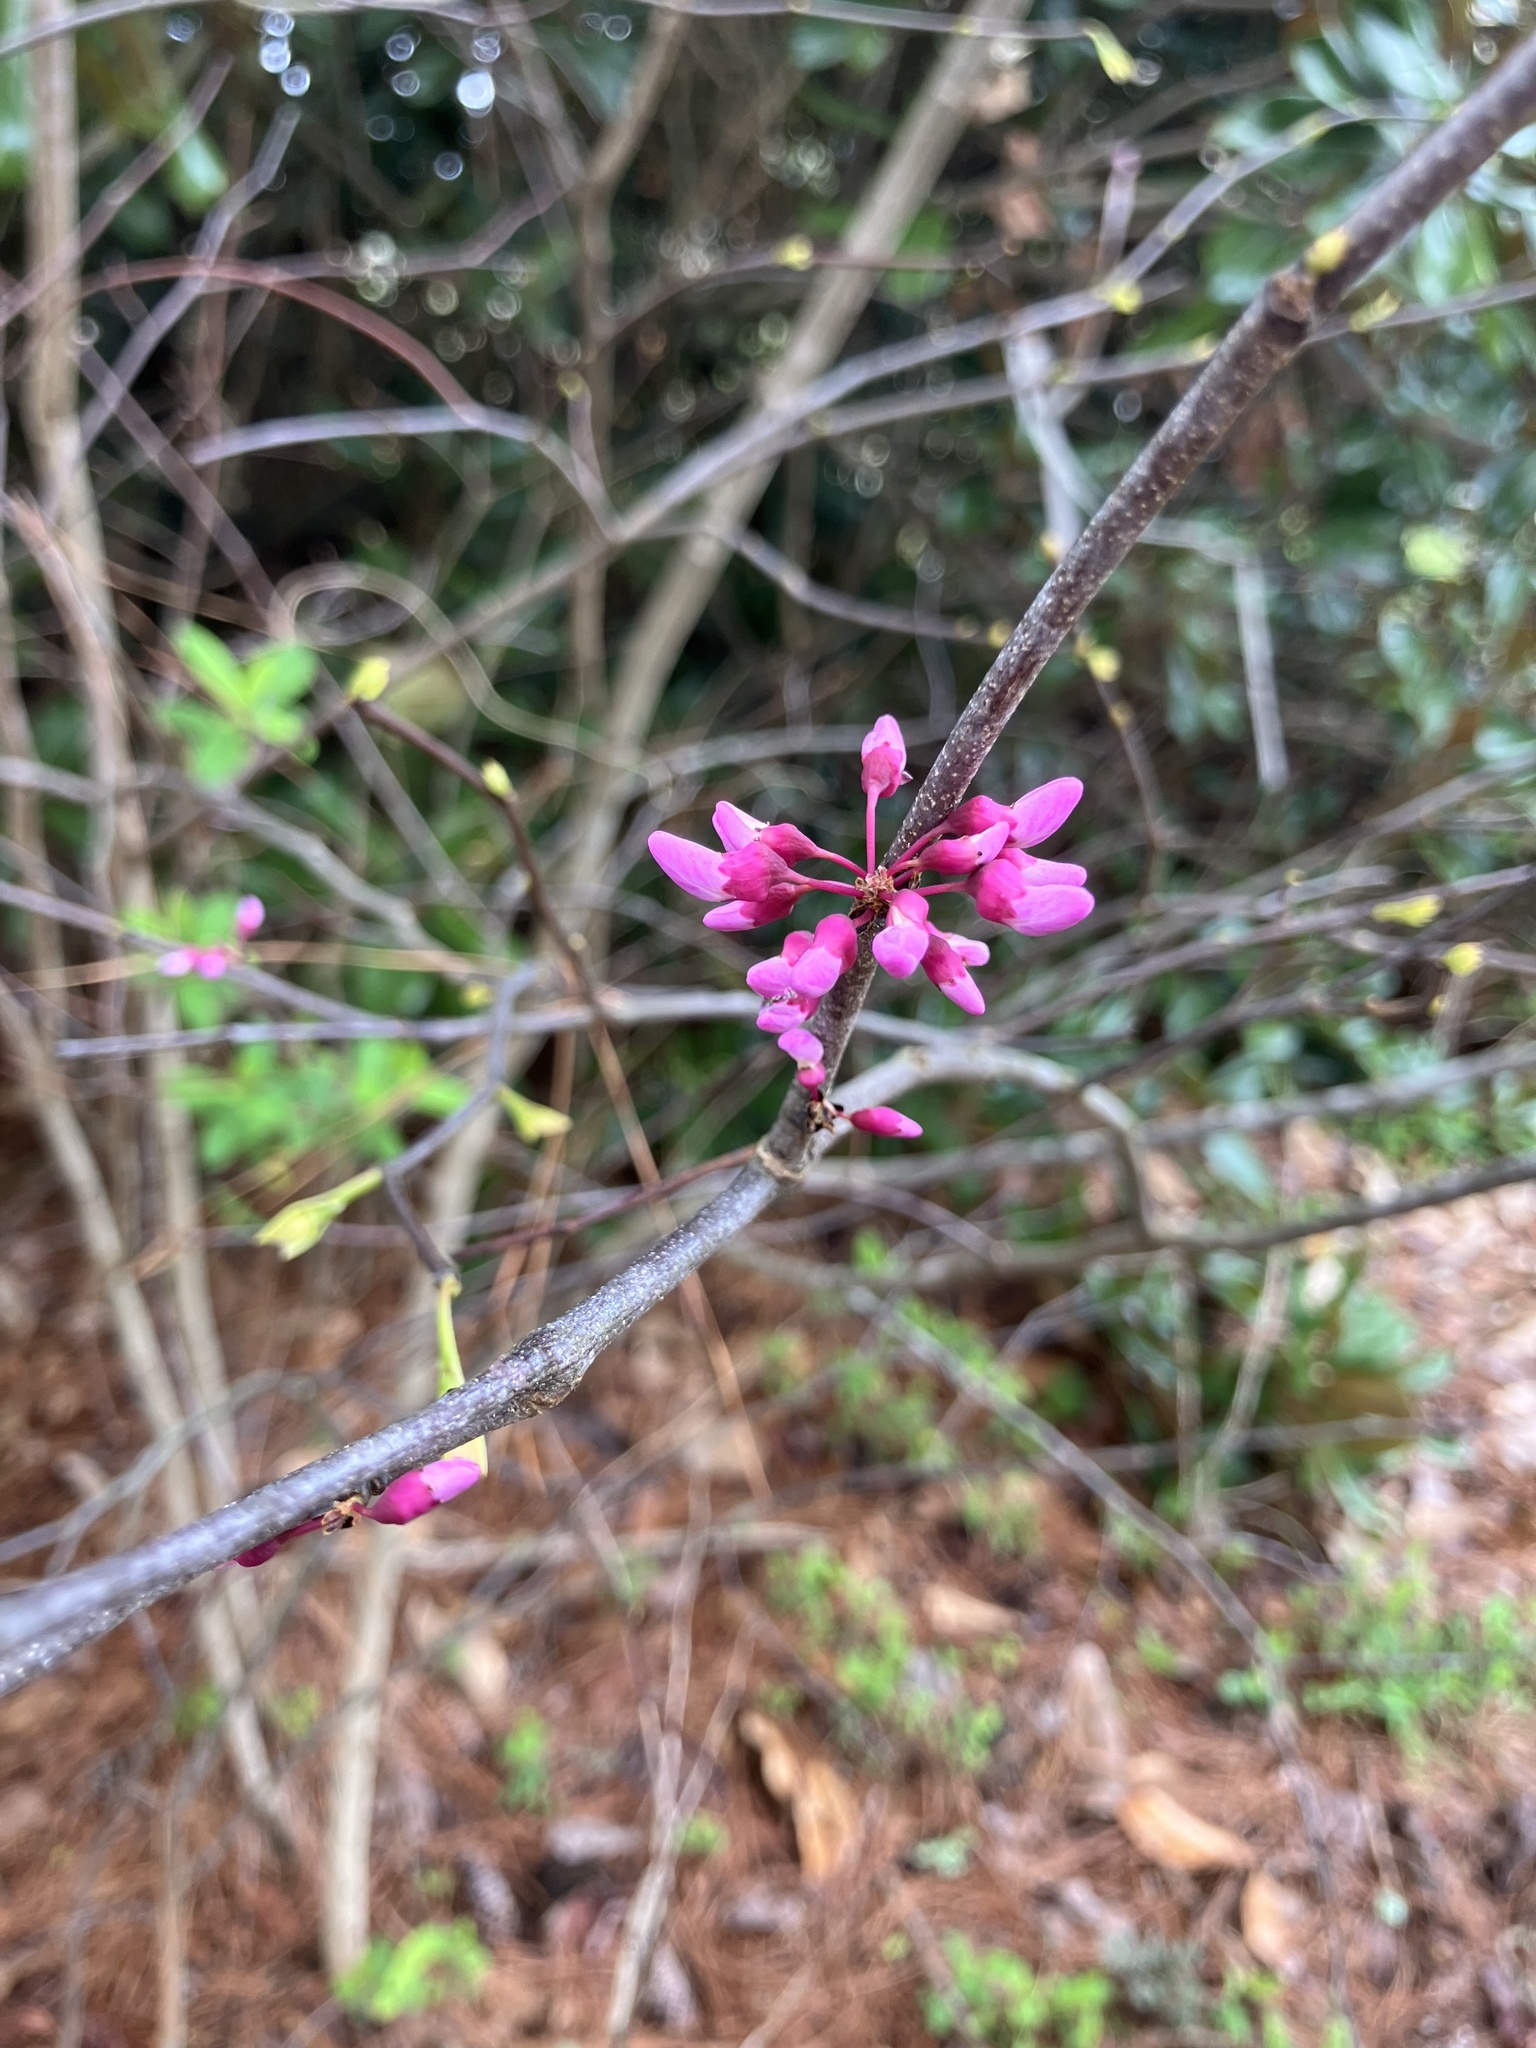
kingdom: Plantae
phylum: Tracheophyta
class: Magnoliopsida
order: Fabales
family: Fabaceae
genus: Cercis
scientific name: Cercis canadensis
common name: Eastern redbud
